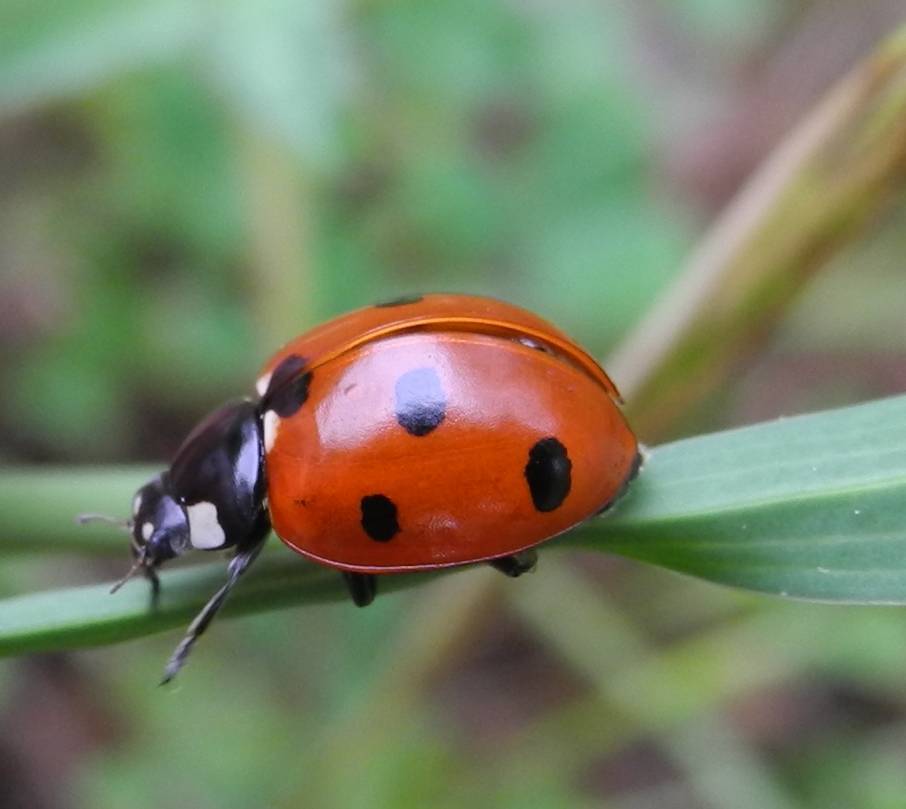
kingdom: Animalia
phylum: Arthropoda
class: Insecta
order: Coleoptera
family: Coccinellidae
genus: Coccinella
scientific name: Coccinella septempunctata
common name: Sevenspotted lady beetle
